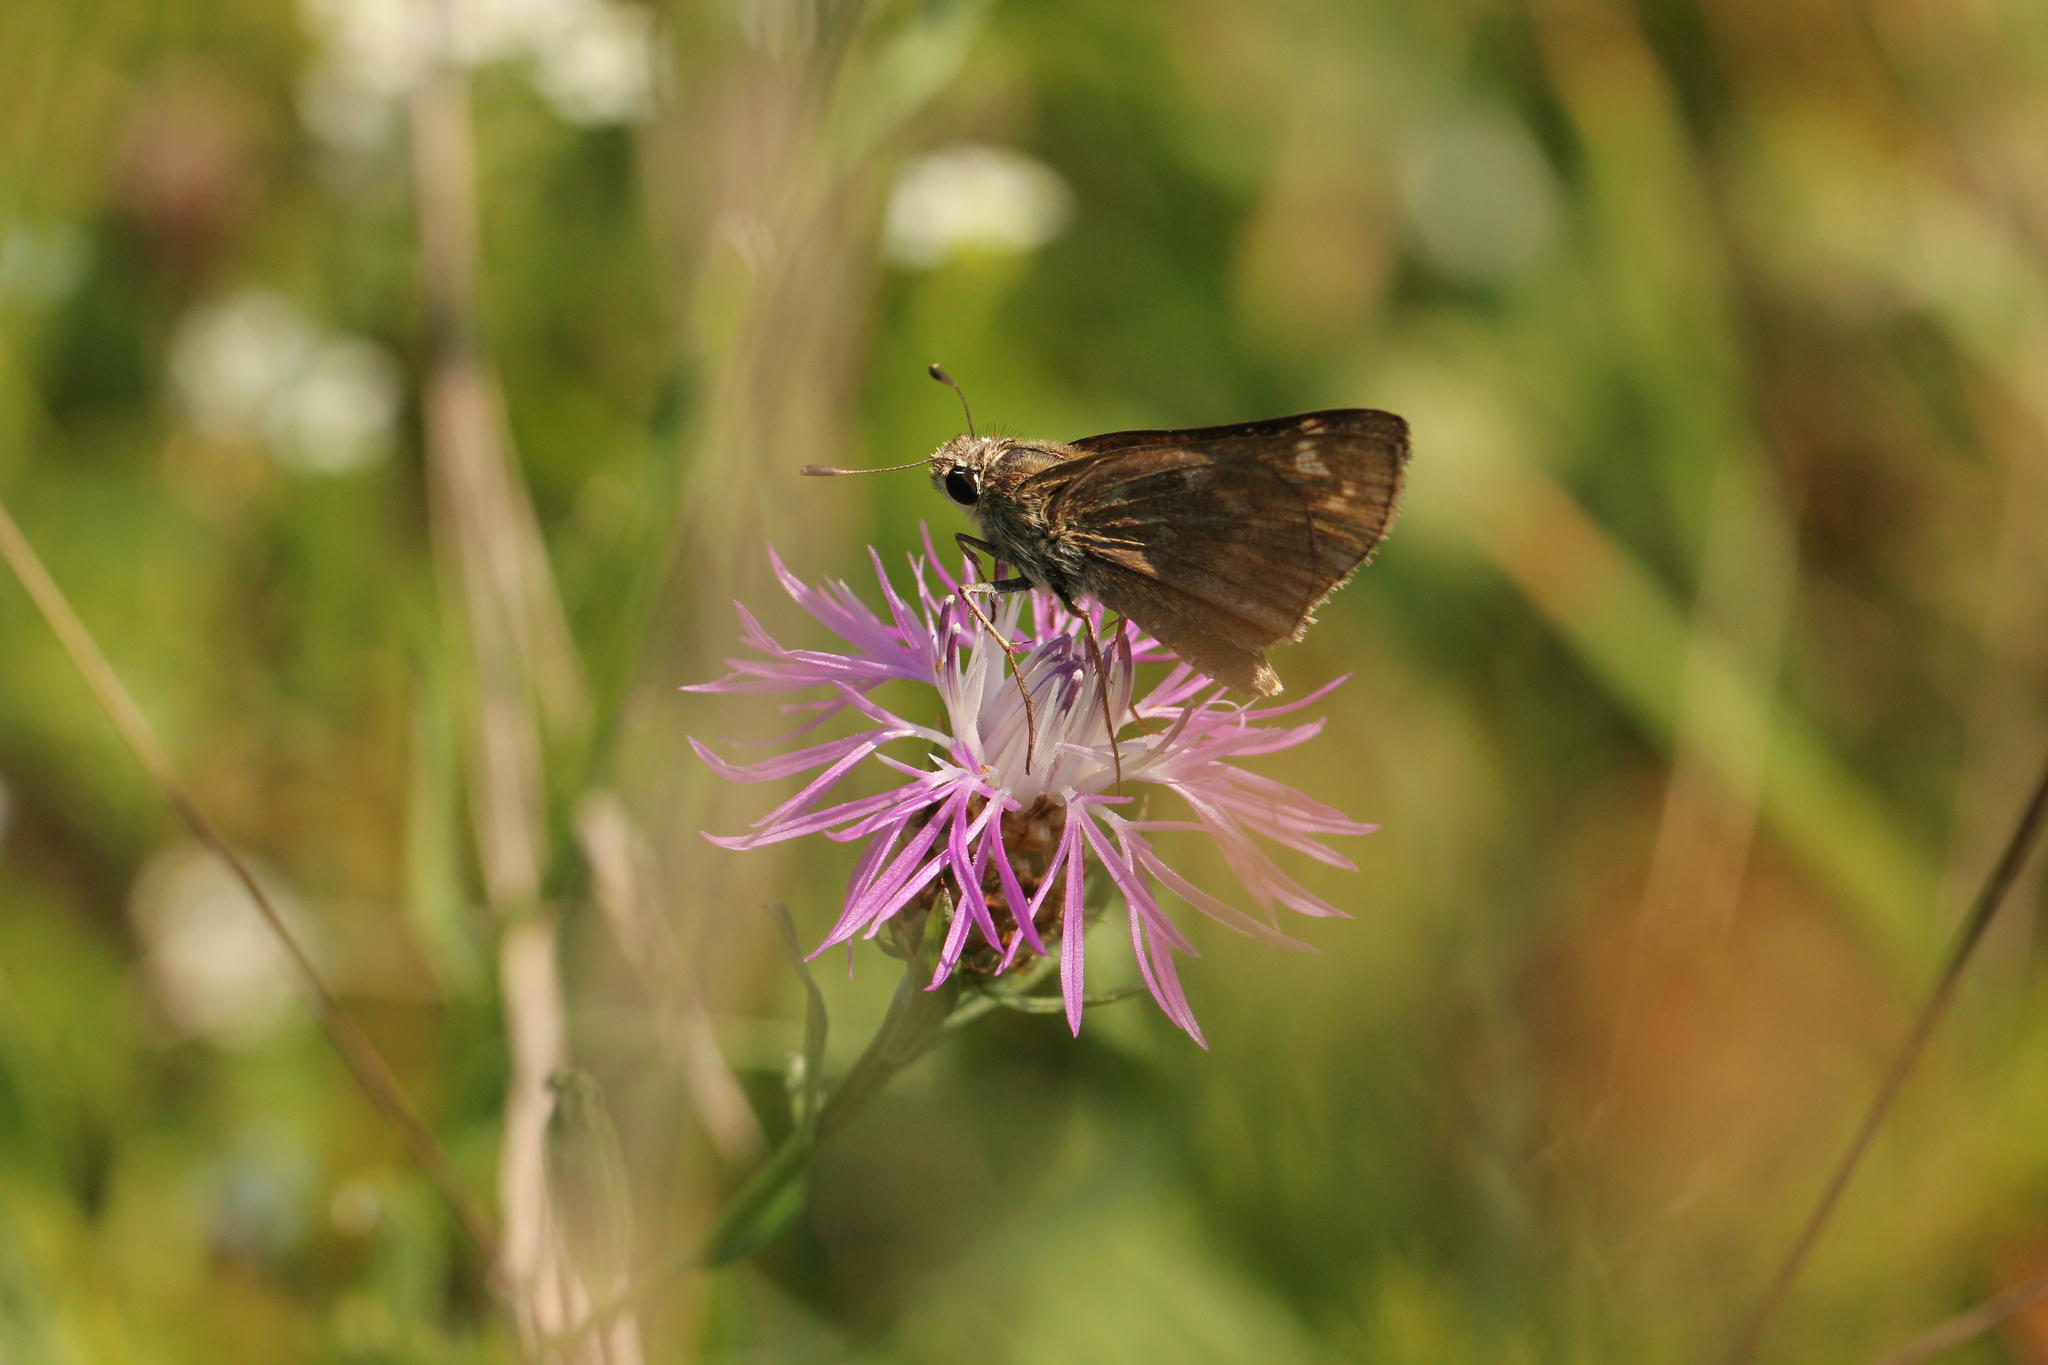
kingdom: Animalia
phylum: Arthropoda
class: Insecta
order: Lepidoptera
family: Hesperiidae
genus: Atalopedes
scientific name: Atalopedes
